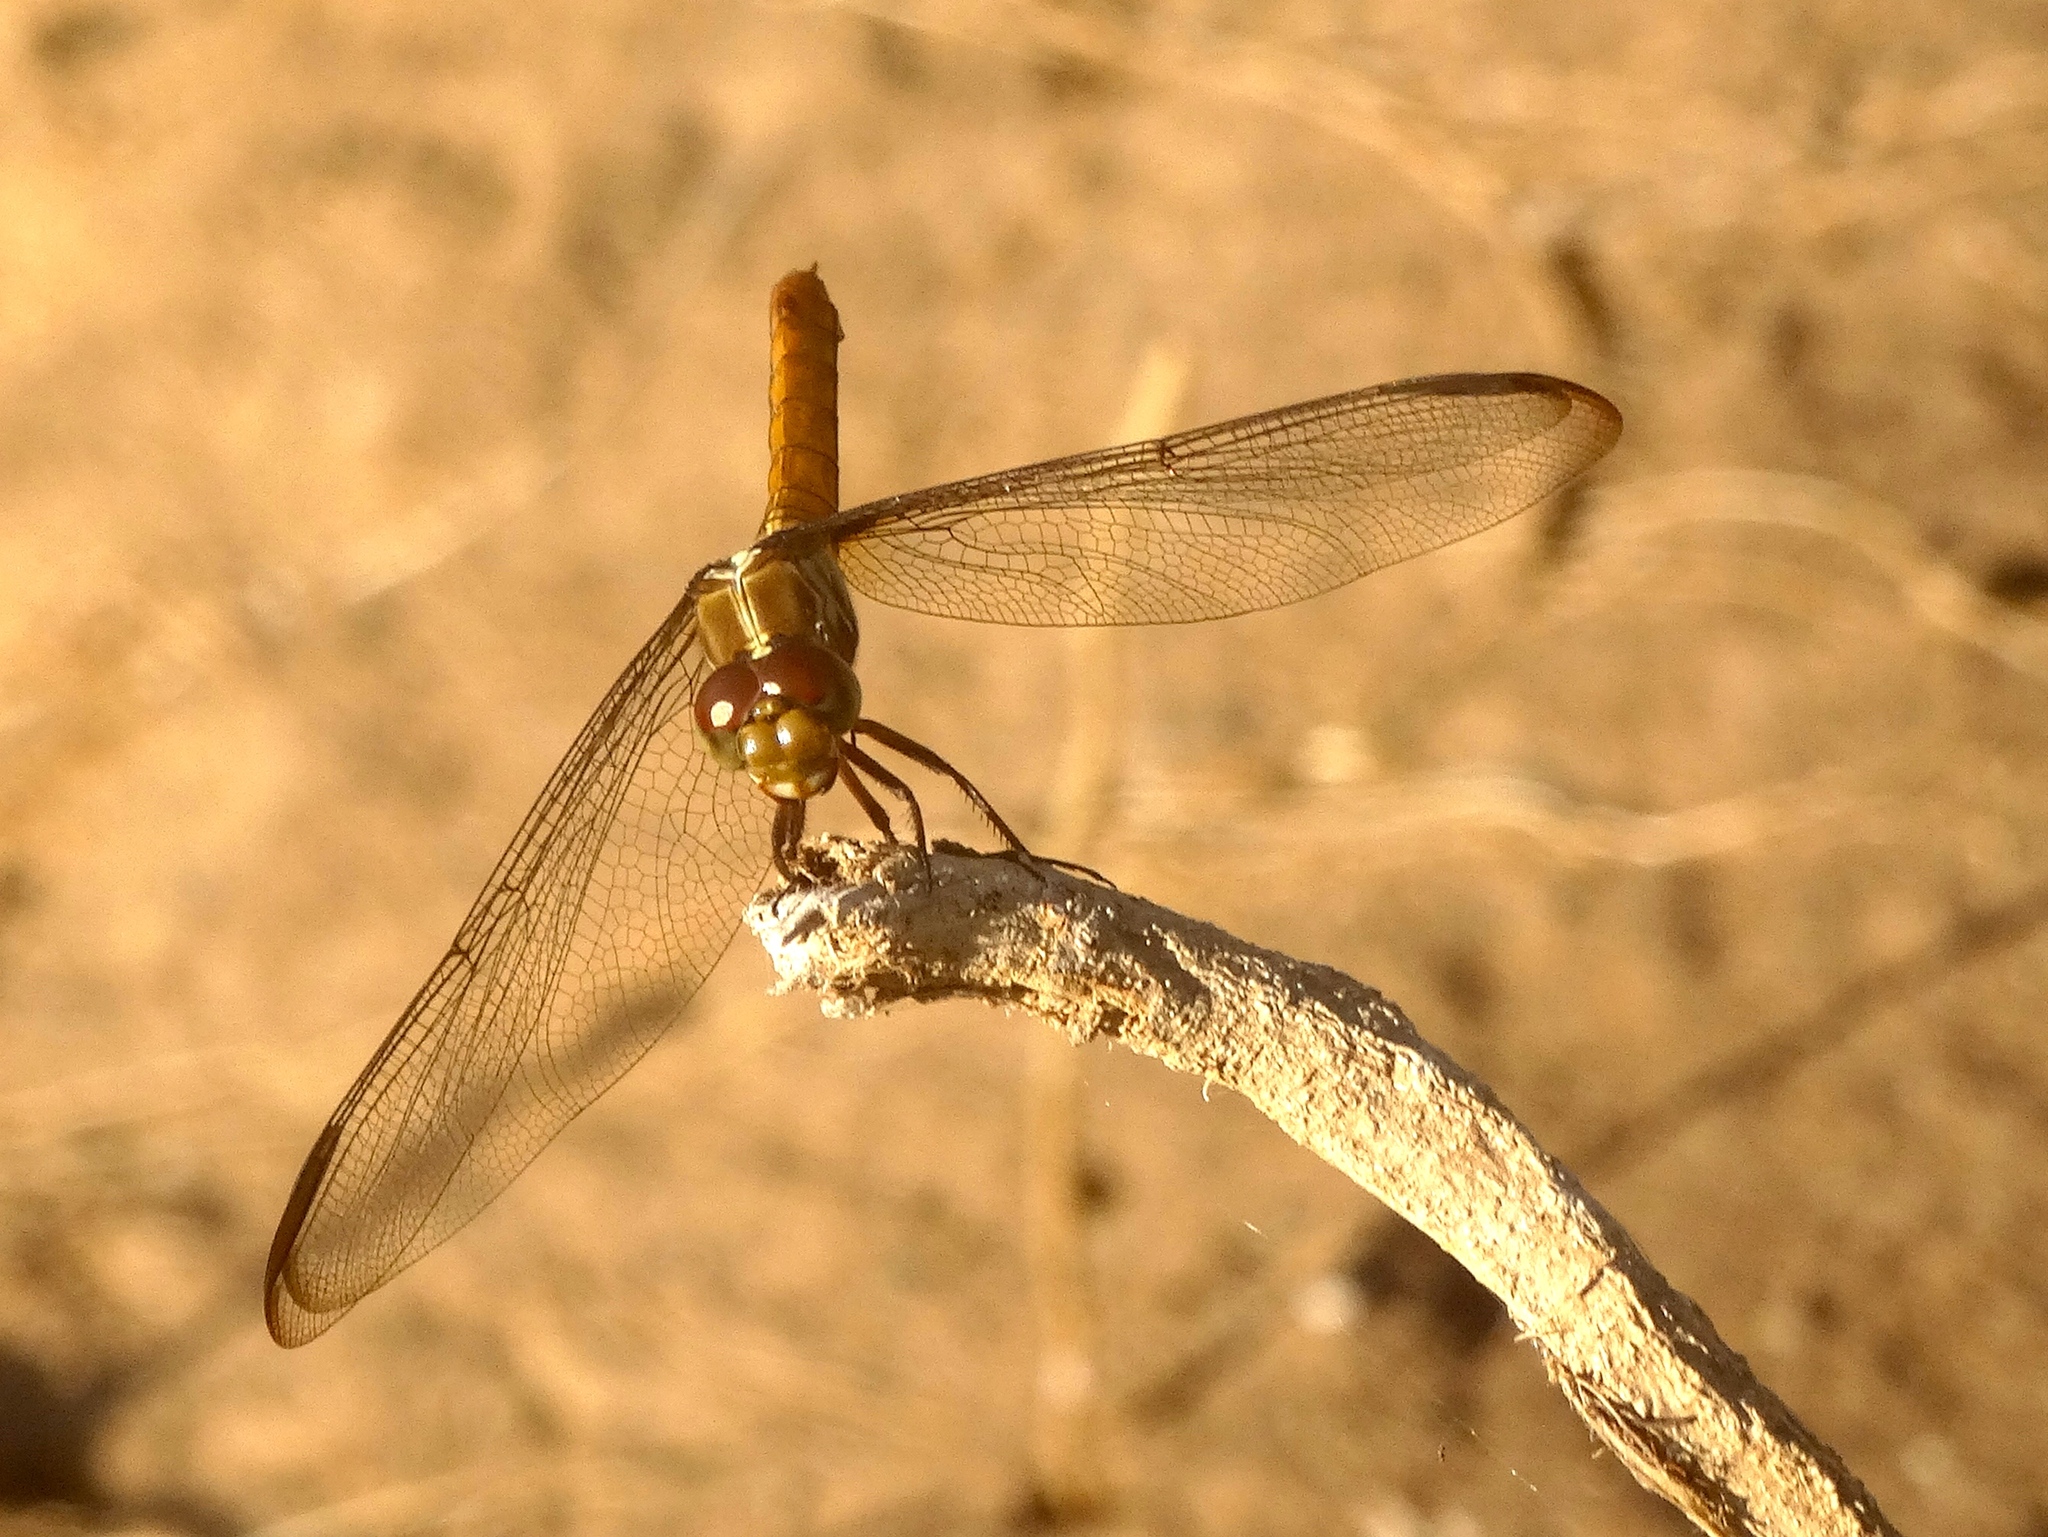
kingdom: Animalia
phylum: Arthropoda
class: Insecta
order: Odonata
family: Libellulidae
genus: Orthemis
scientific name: Orthemis
